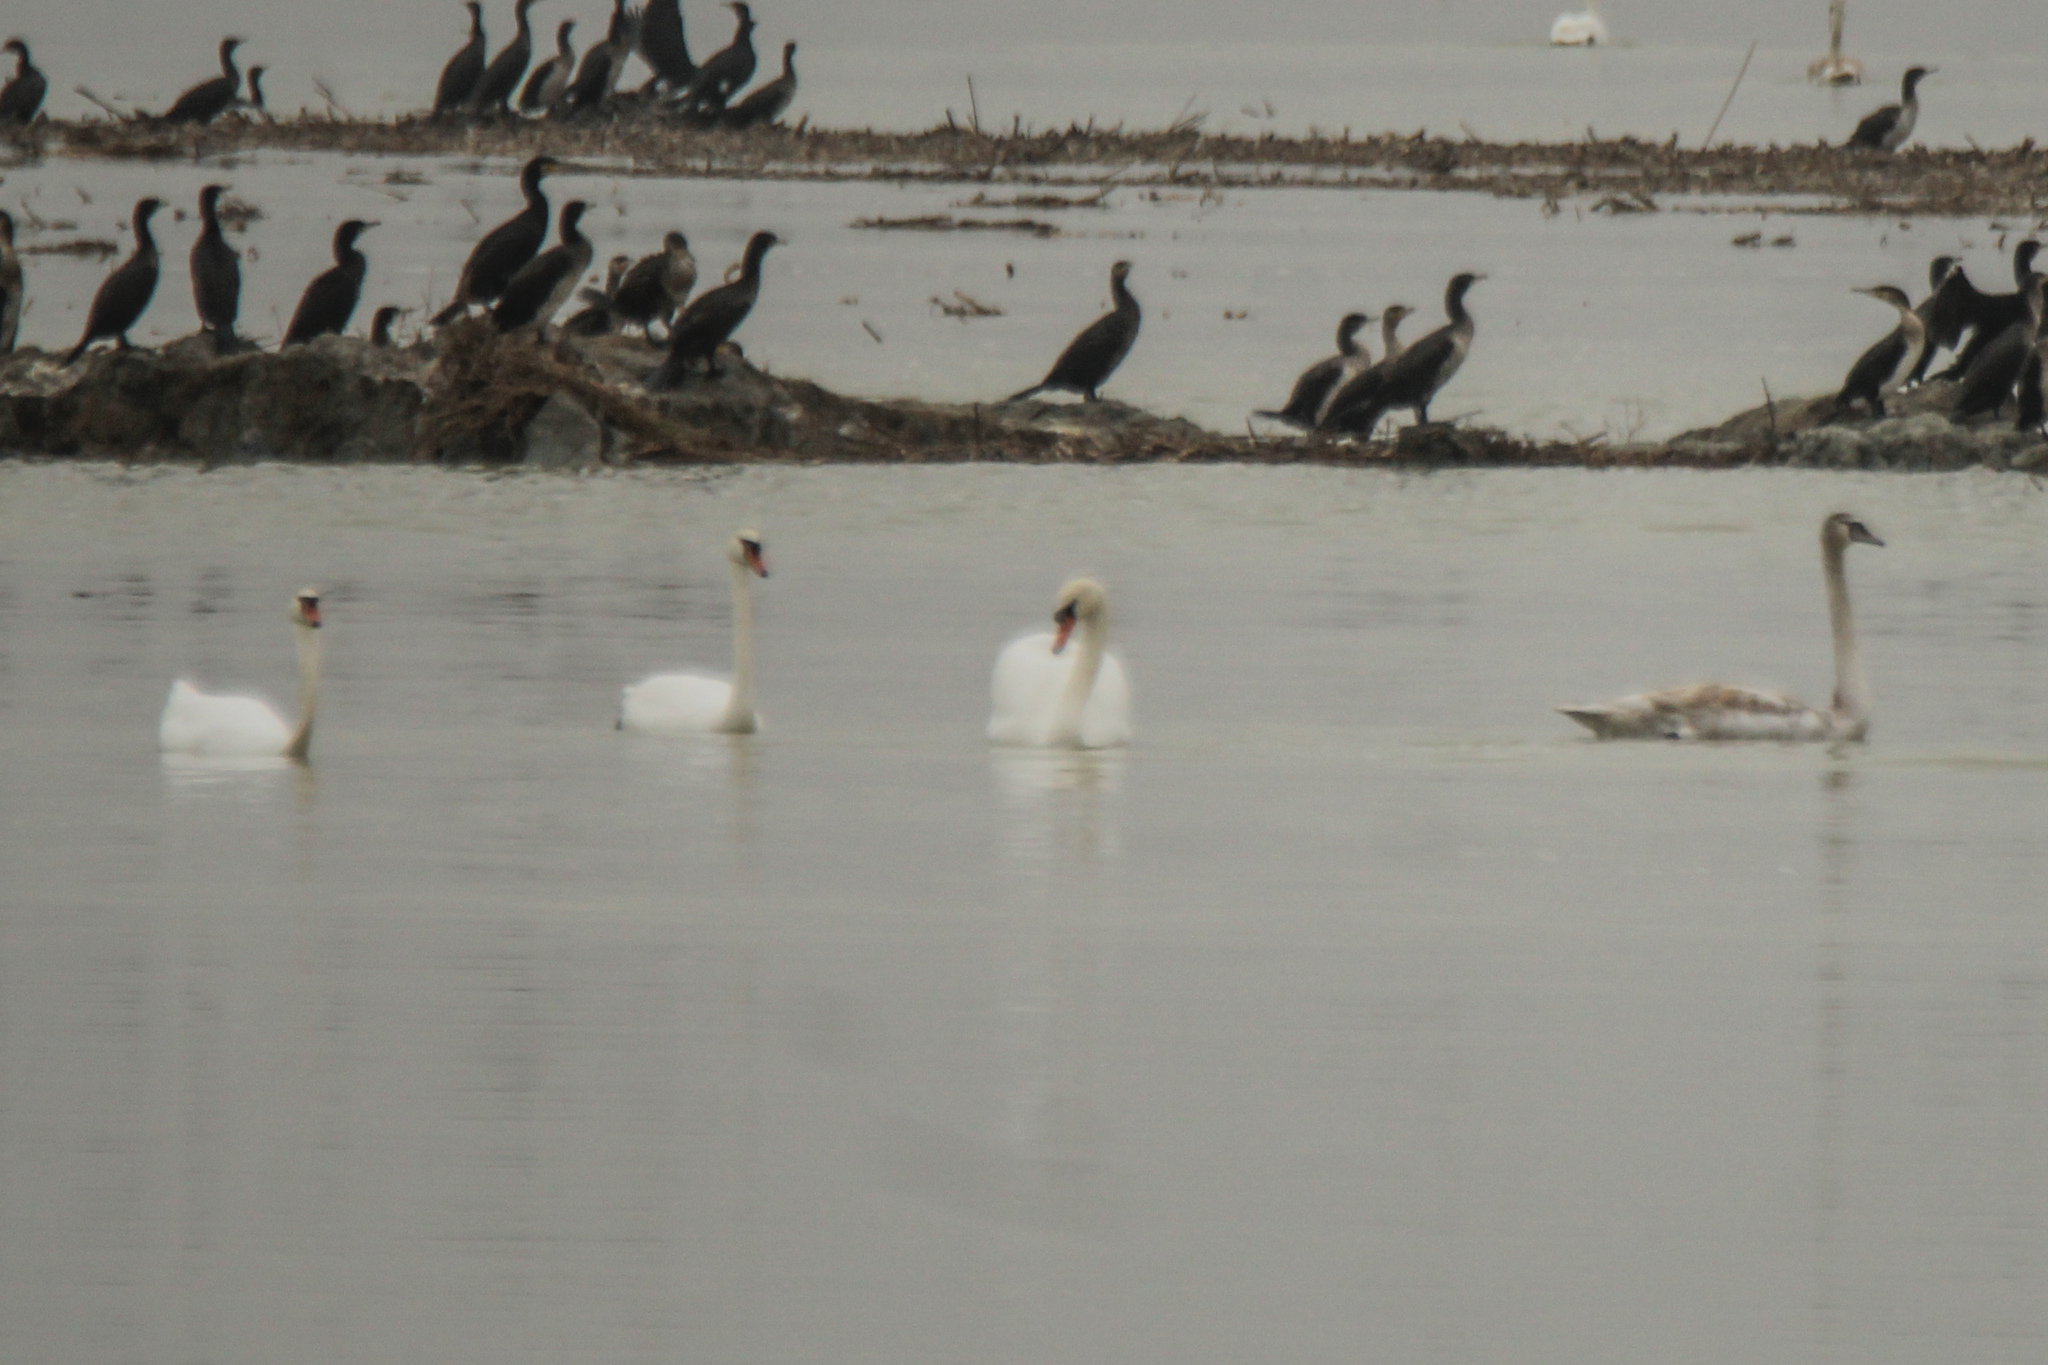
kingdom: Animalia
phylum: Chordata
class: Aves
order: Anseriformes
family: Anatidae
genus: Cygnus
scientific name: Cygnus olor
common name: Mute swan
